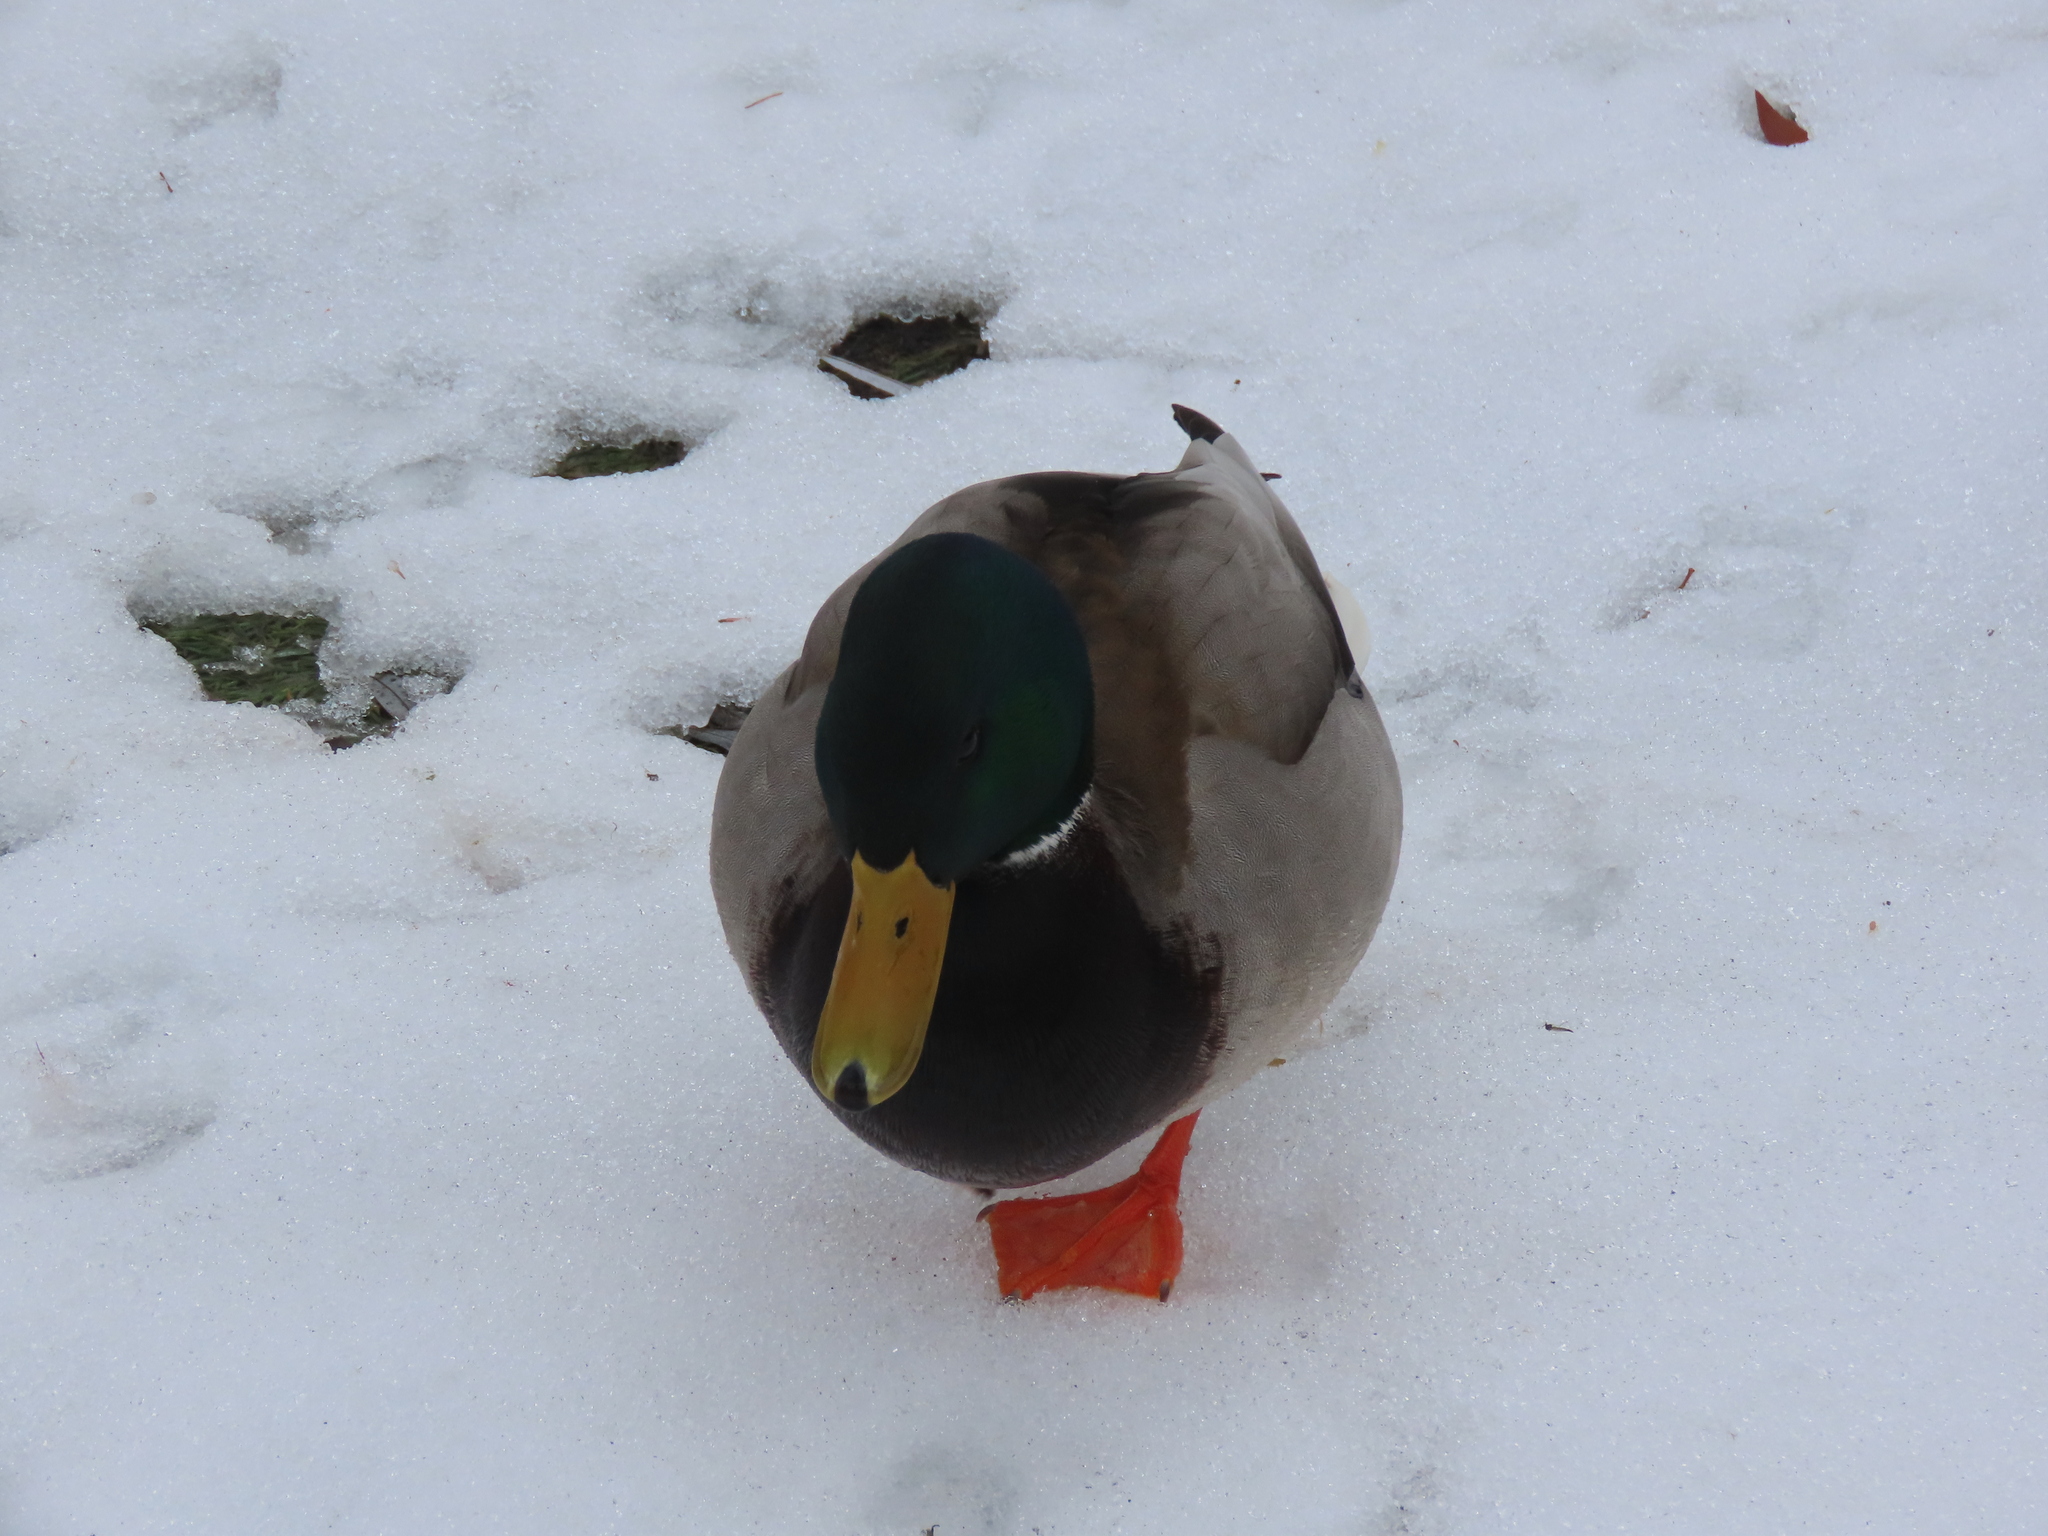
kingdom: Animalia
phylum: Chordata
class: Aves
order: Anseriformes
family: Anatidae
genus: Anas
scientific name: Anas platyrhynchos
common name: Mallard
